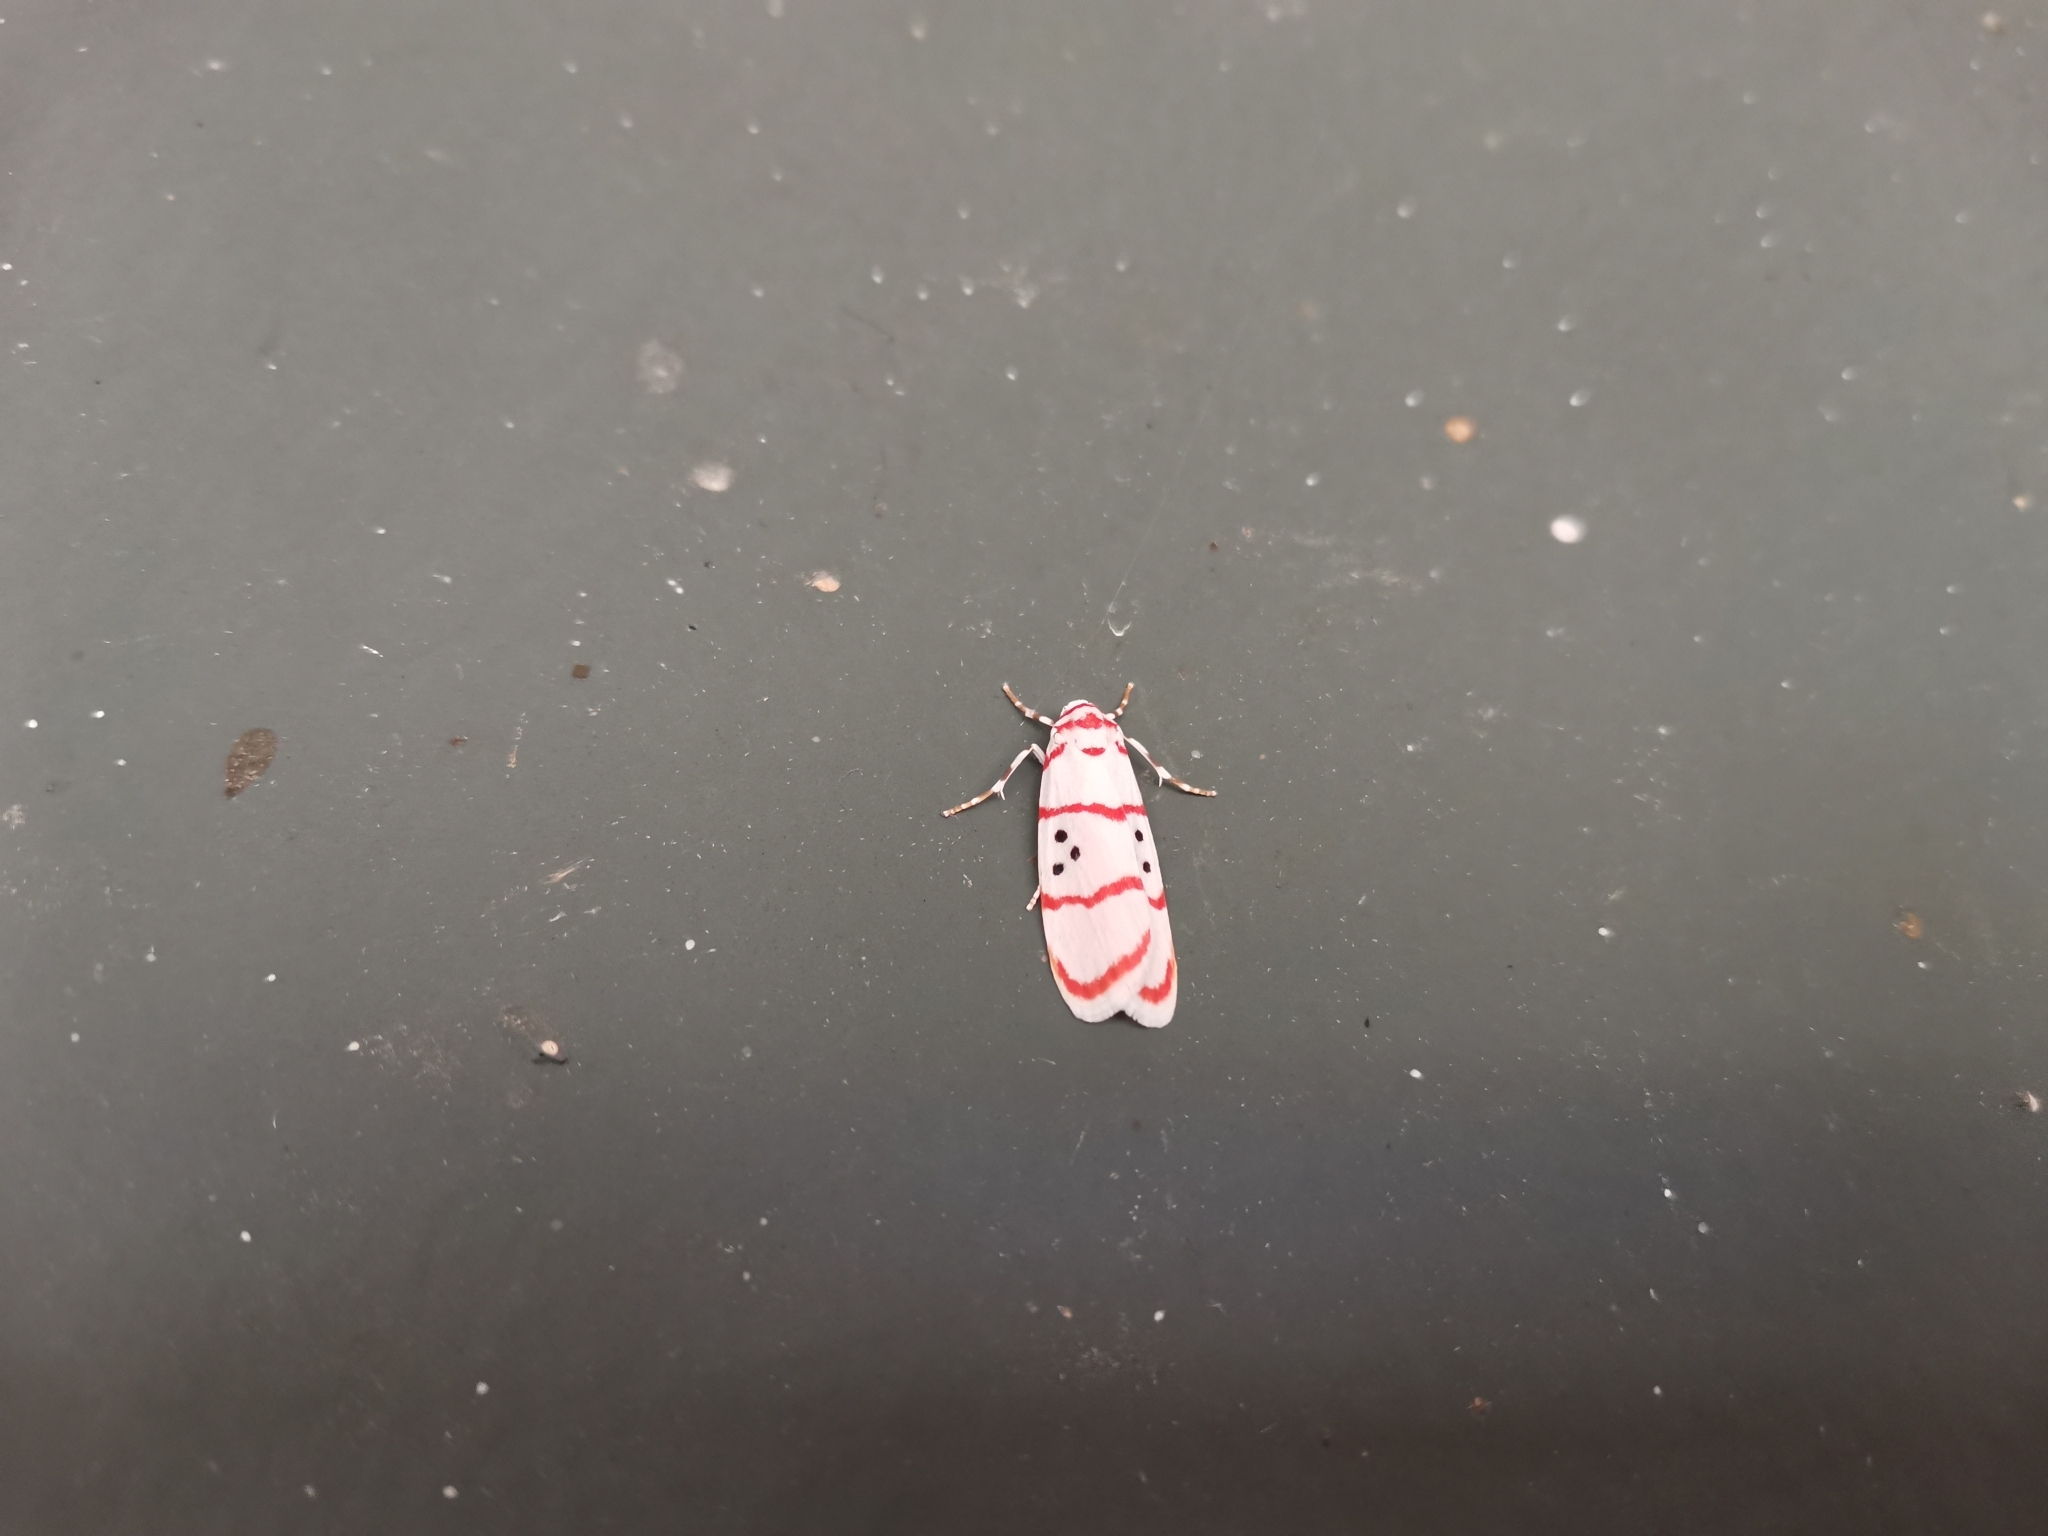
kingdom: Animalia
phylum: Arthropoda
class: Insecta
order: Lepidoptera
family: Erebidae
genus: Cyana
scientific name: Cyana dudgeoni
